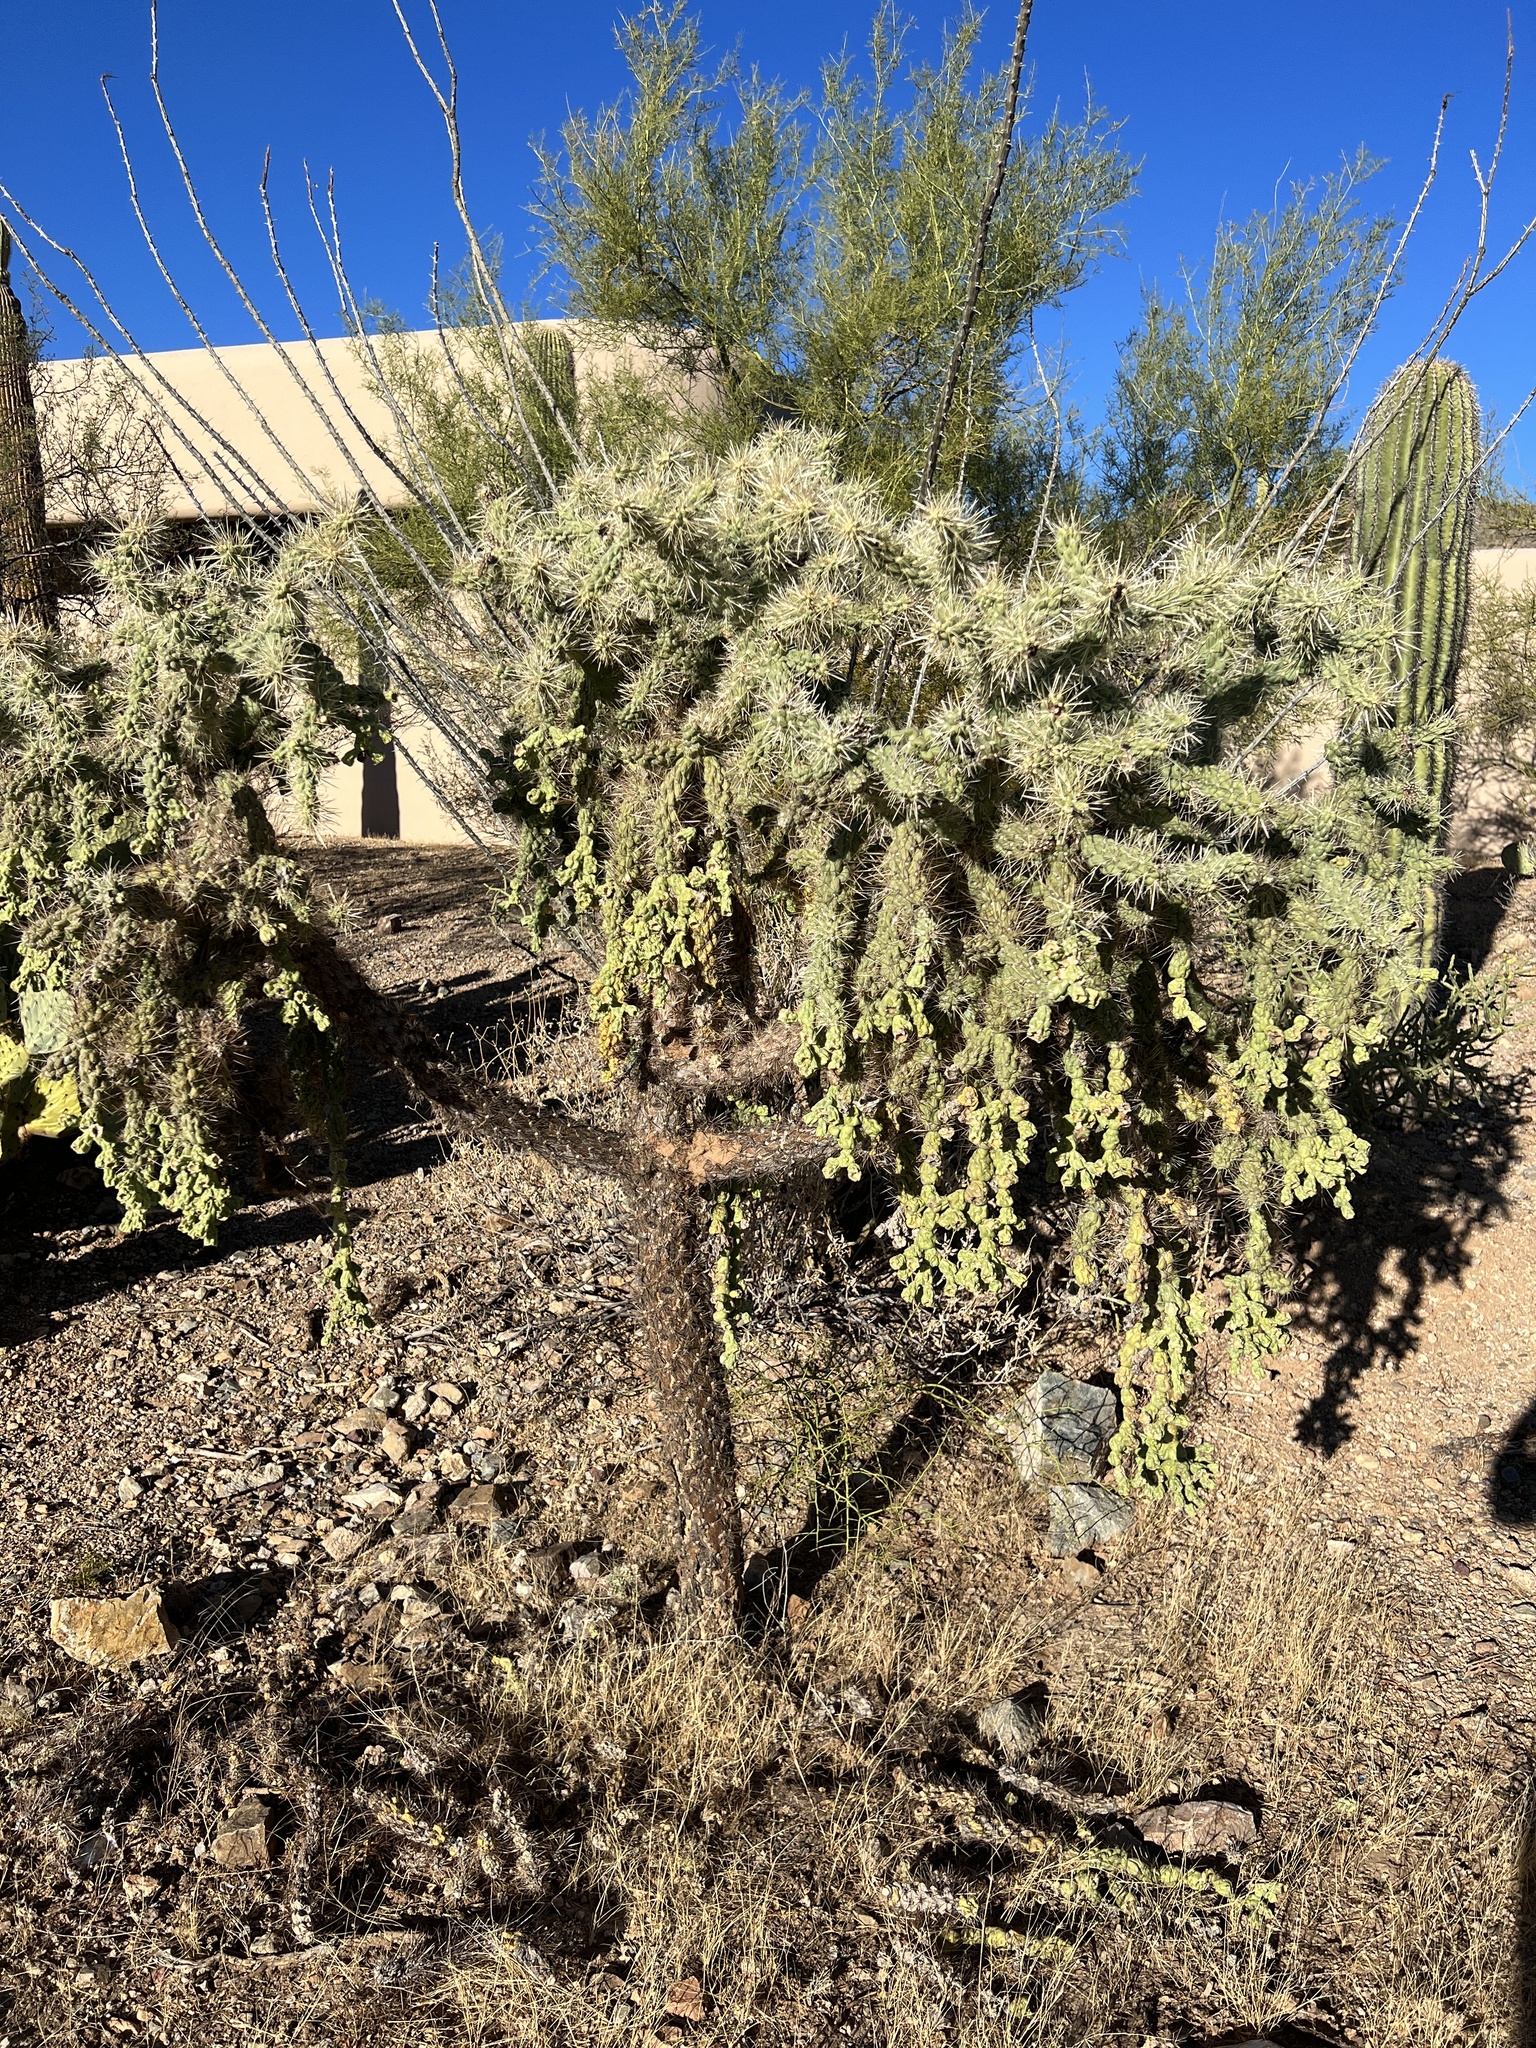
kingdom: Plantae
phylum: Tracheophyta
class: Magnoliopsida
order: Caryophyllales
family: Cactaceae
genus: Cylindropuntia
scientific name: Cylindropuntia fulgida
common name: Jumping cholla
